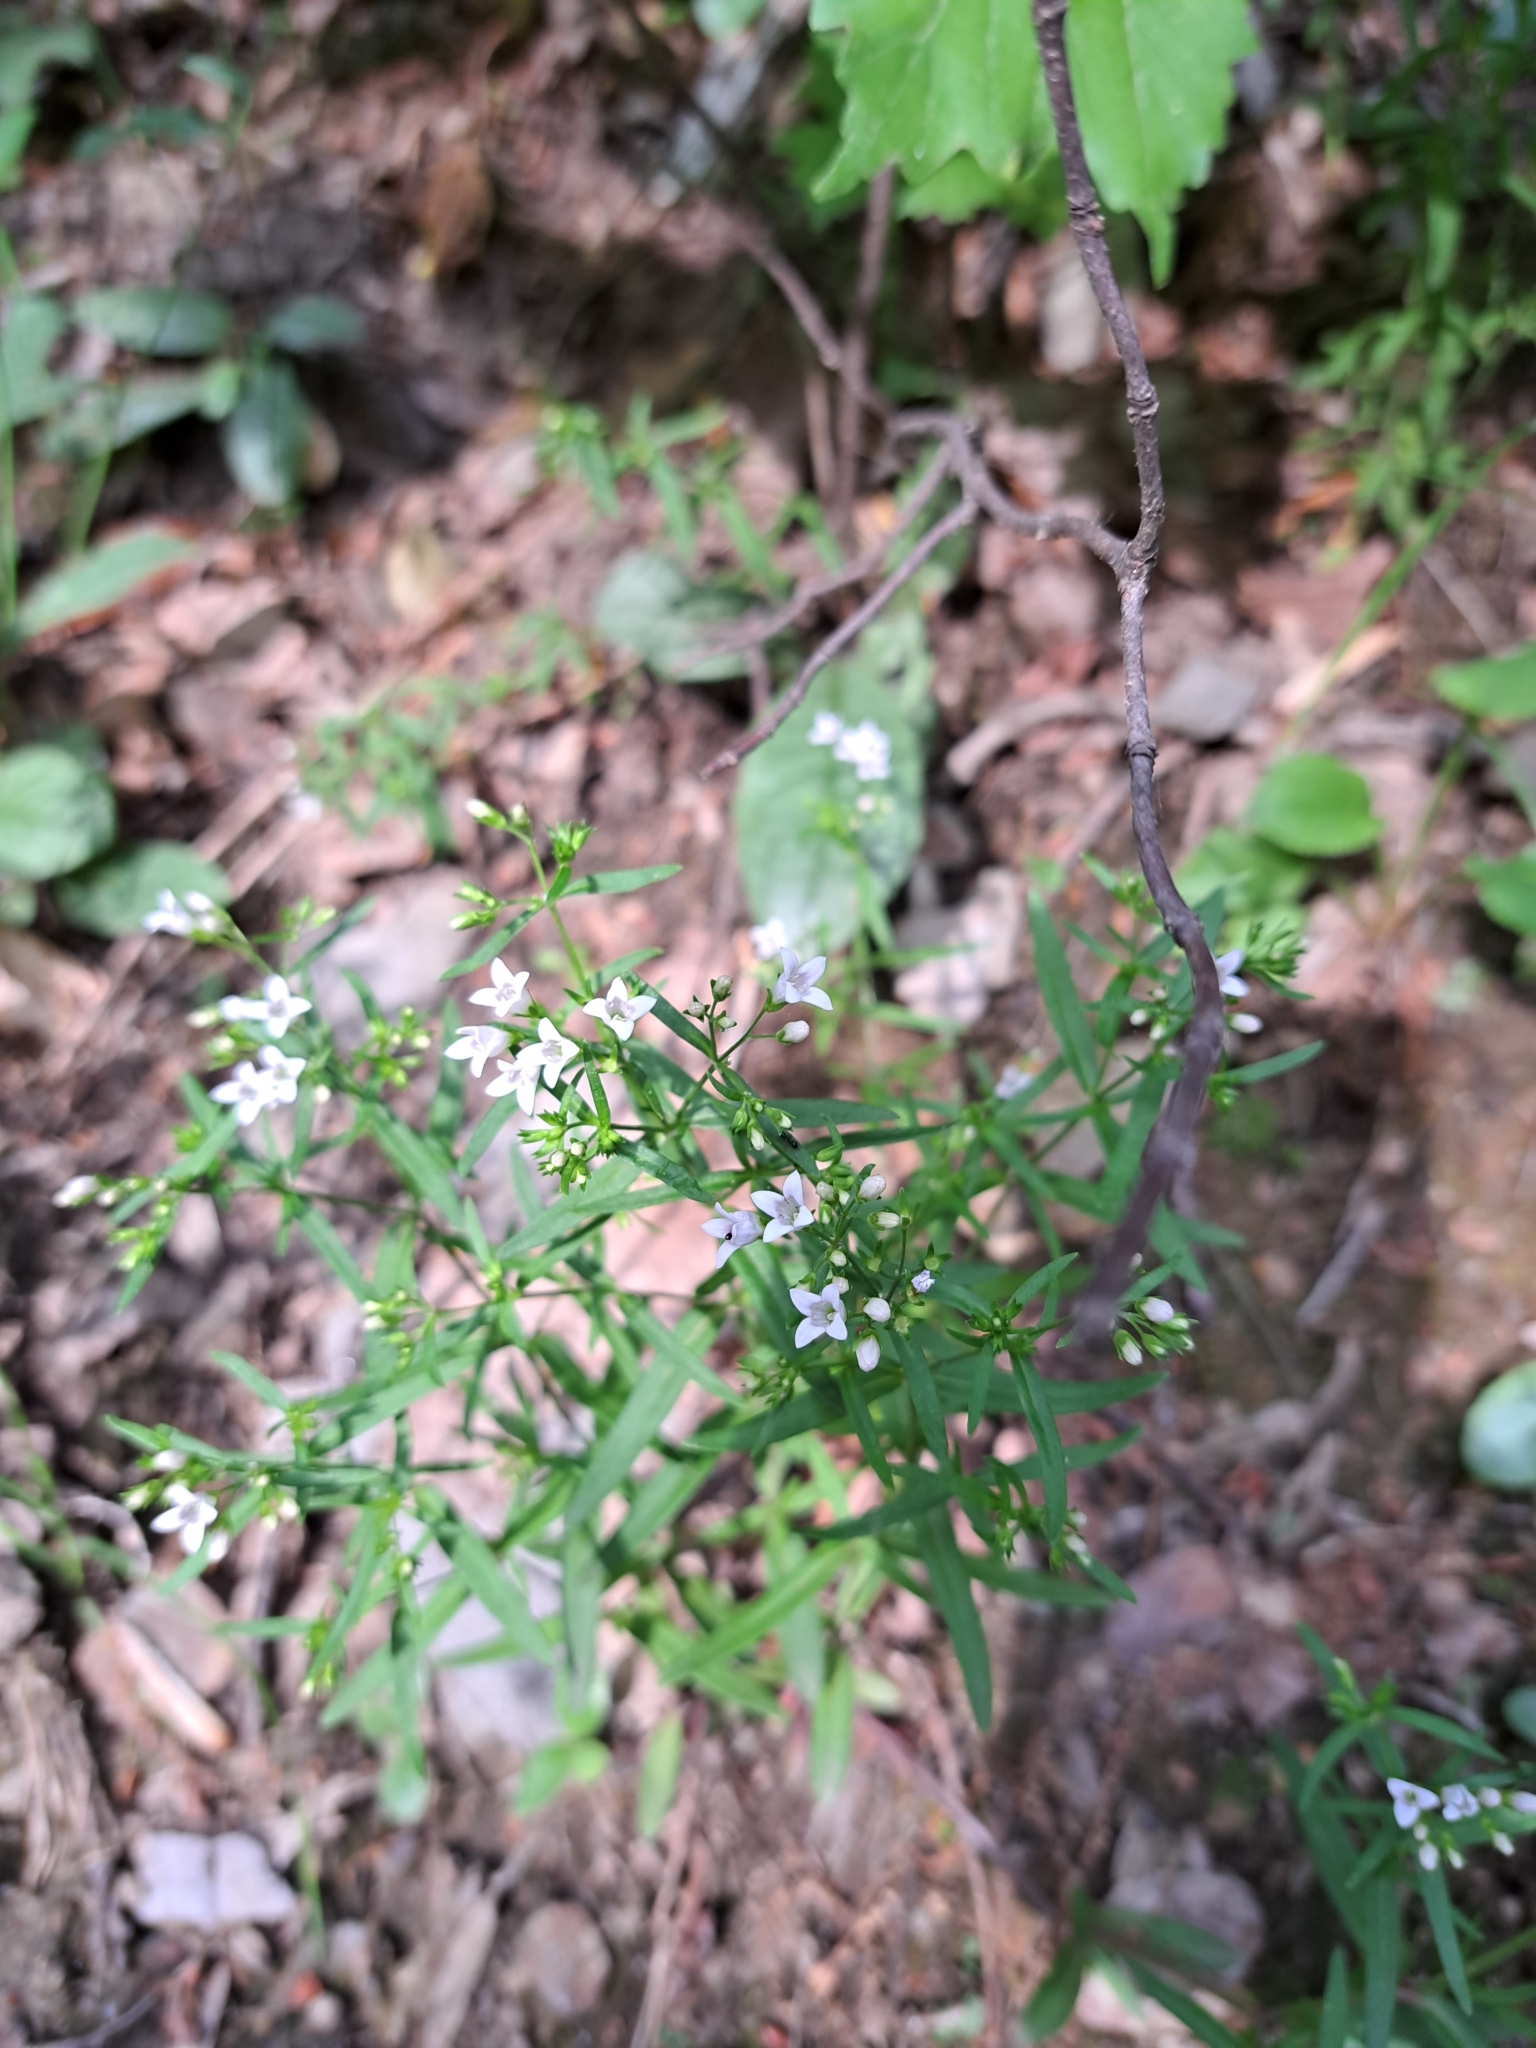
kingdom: Plantae
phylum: Tracheophyta
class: Magnoliopsida
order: Gentianales
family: Rubiaceae
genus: Houstonia
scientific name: Houstonia longifolia
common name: Long-leaved bluets
